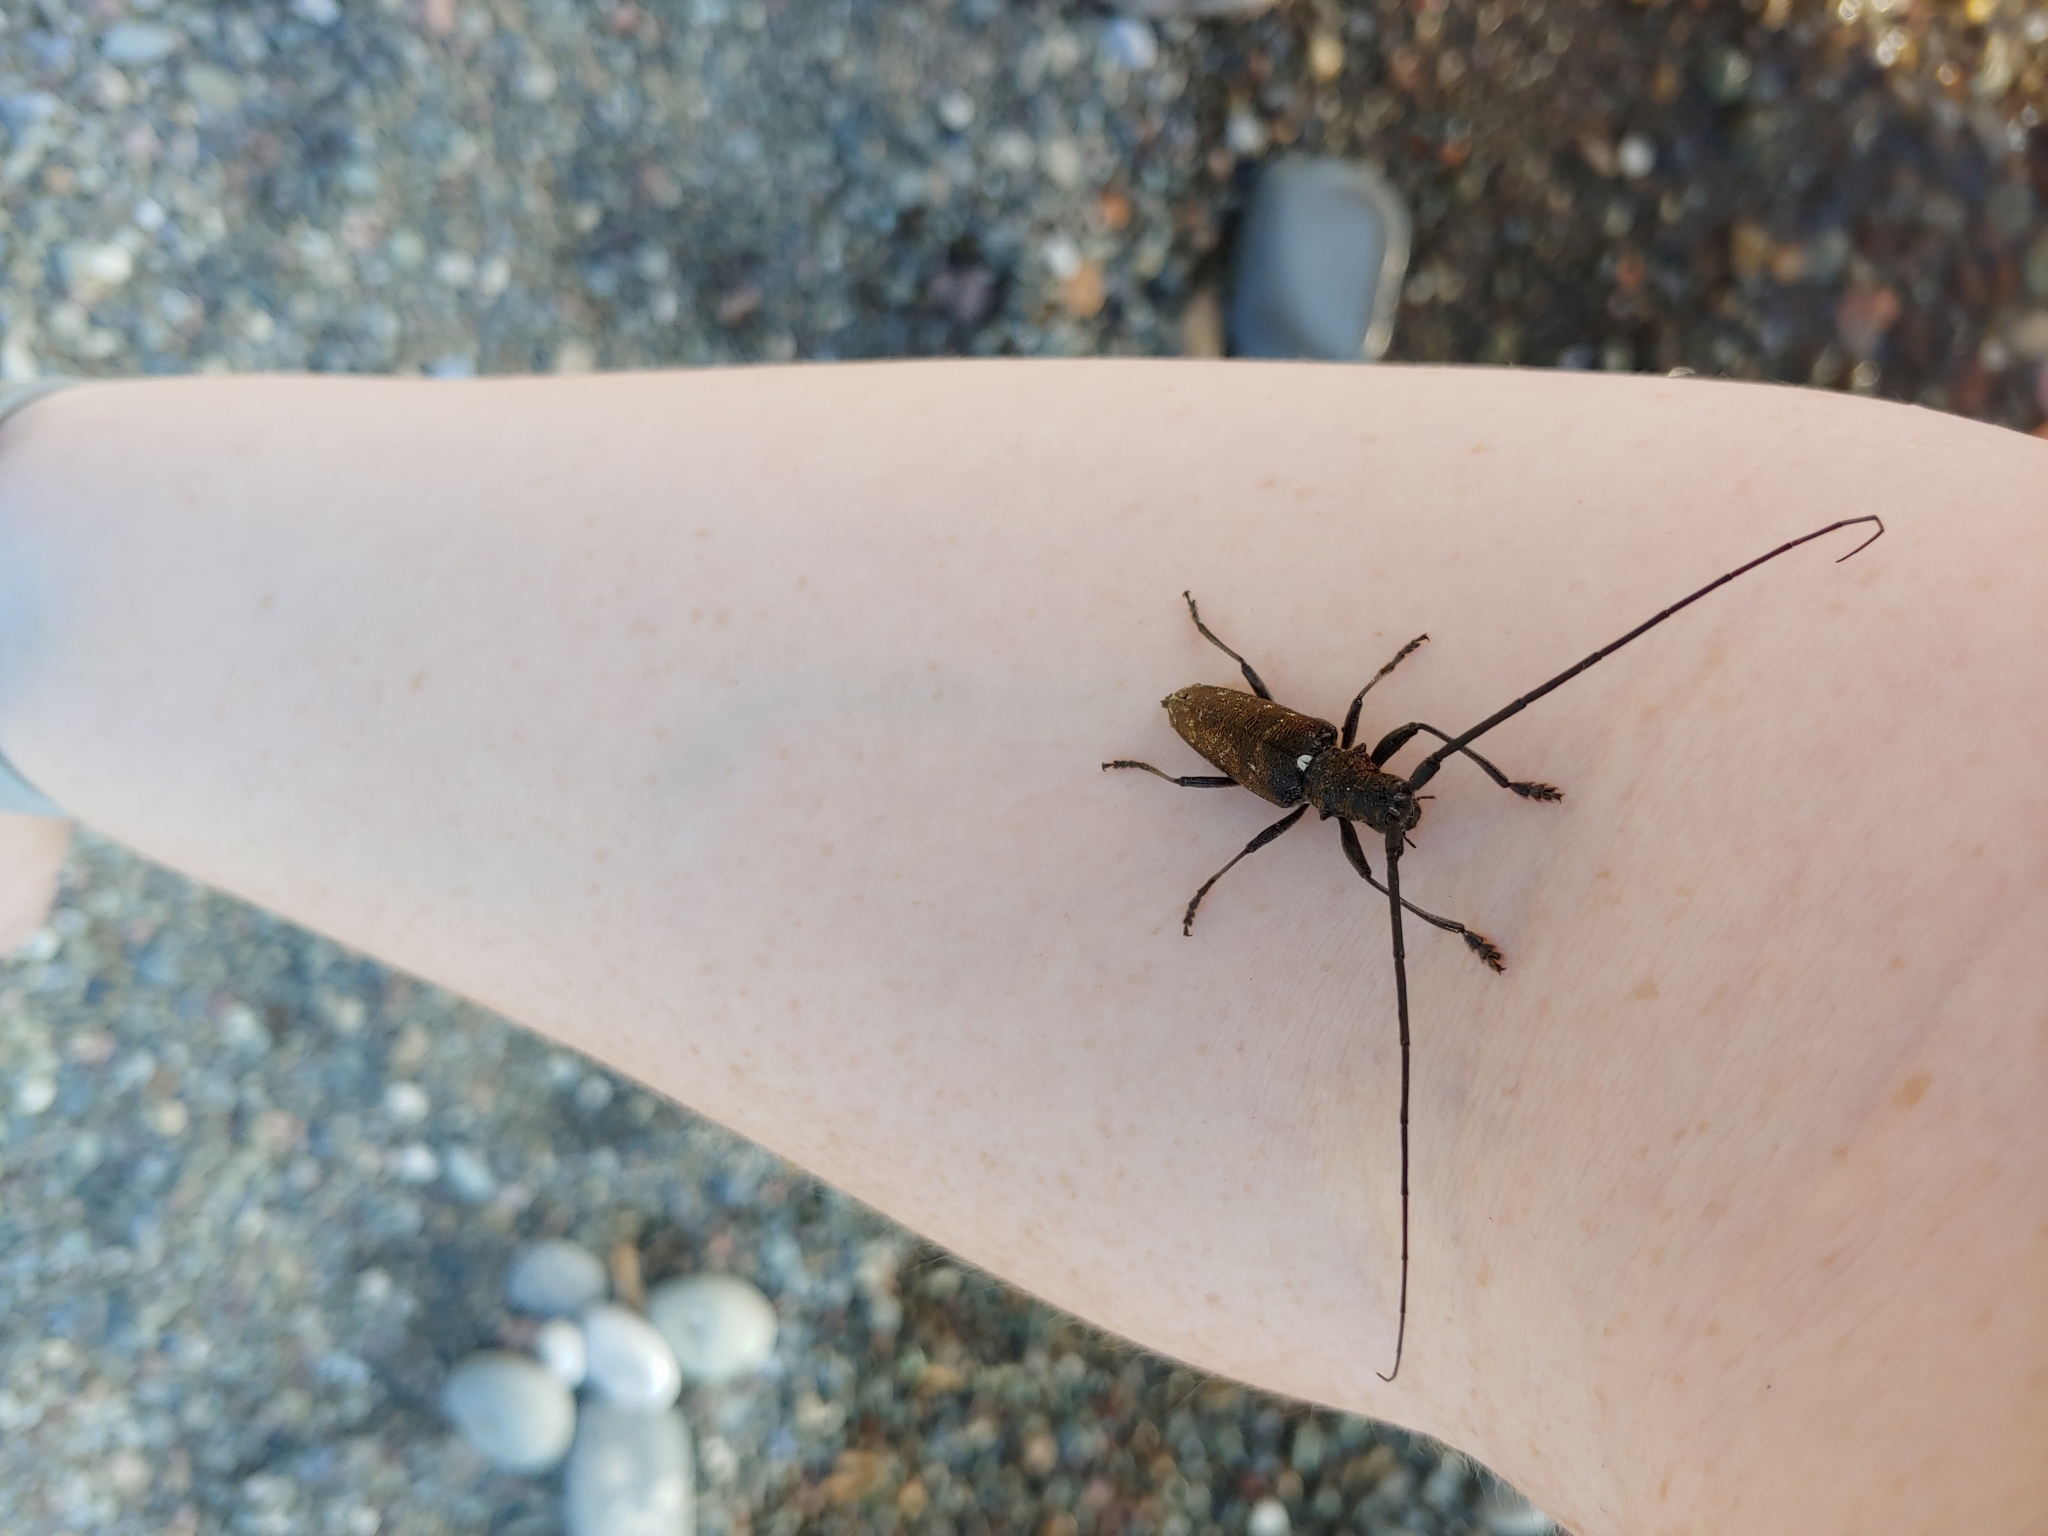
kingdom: Animalia
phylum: Arthropoda
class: Insecta
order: Coleoptera
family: Cerambycidae
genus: Monochamus
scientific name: Monochamus scutellatus
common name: White-spotted sawyer beetle
